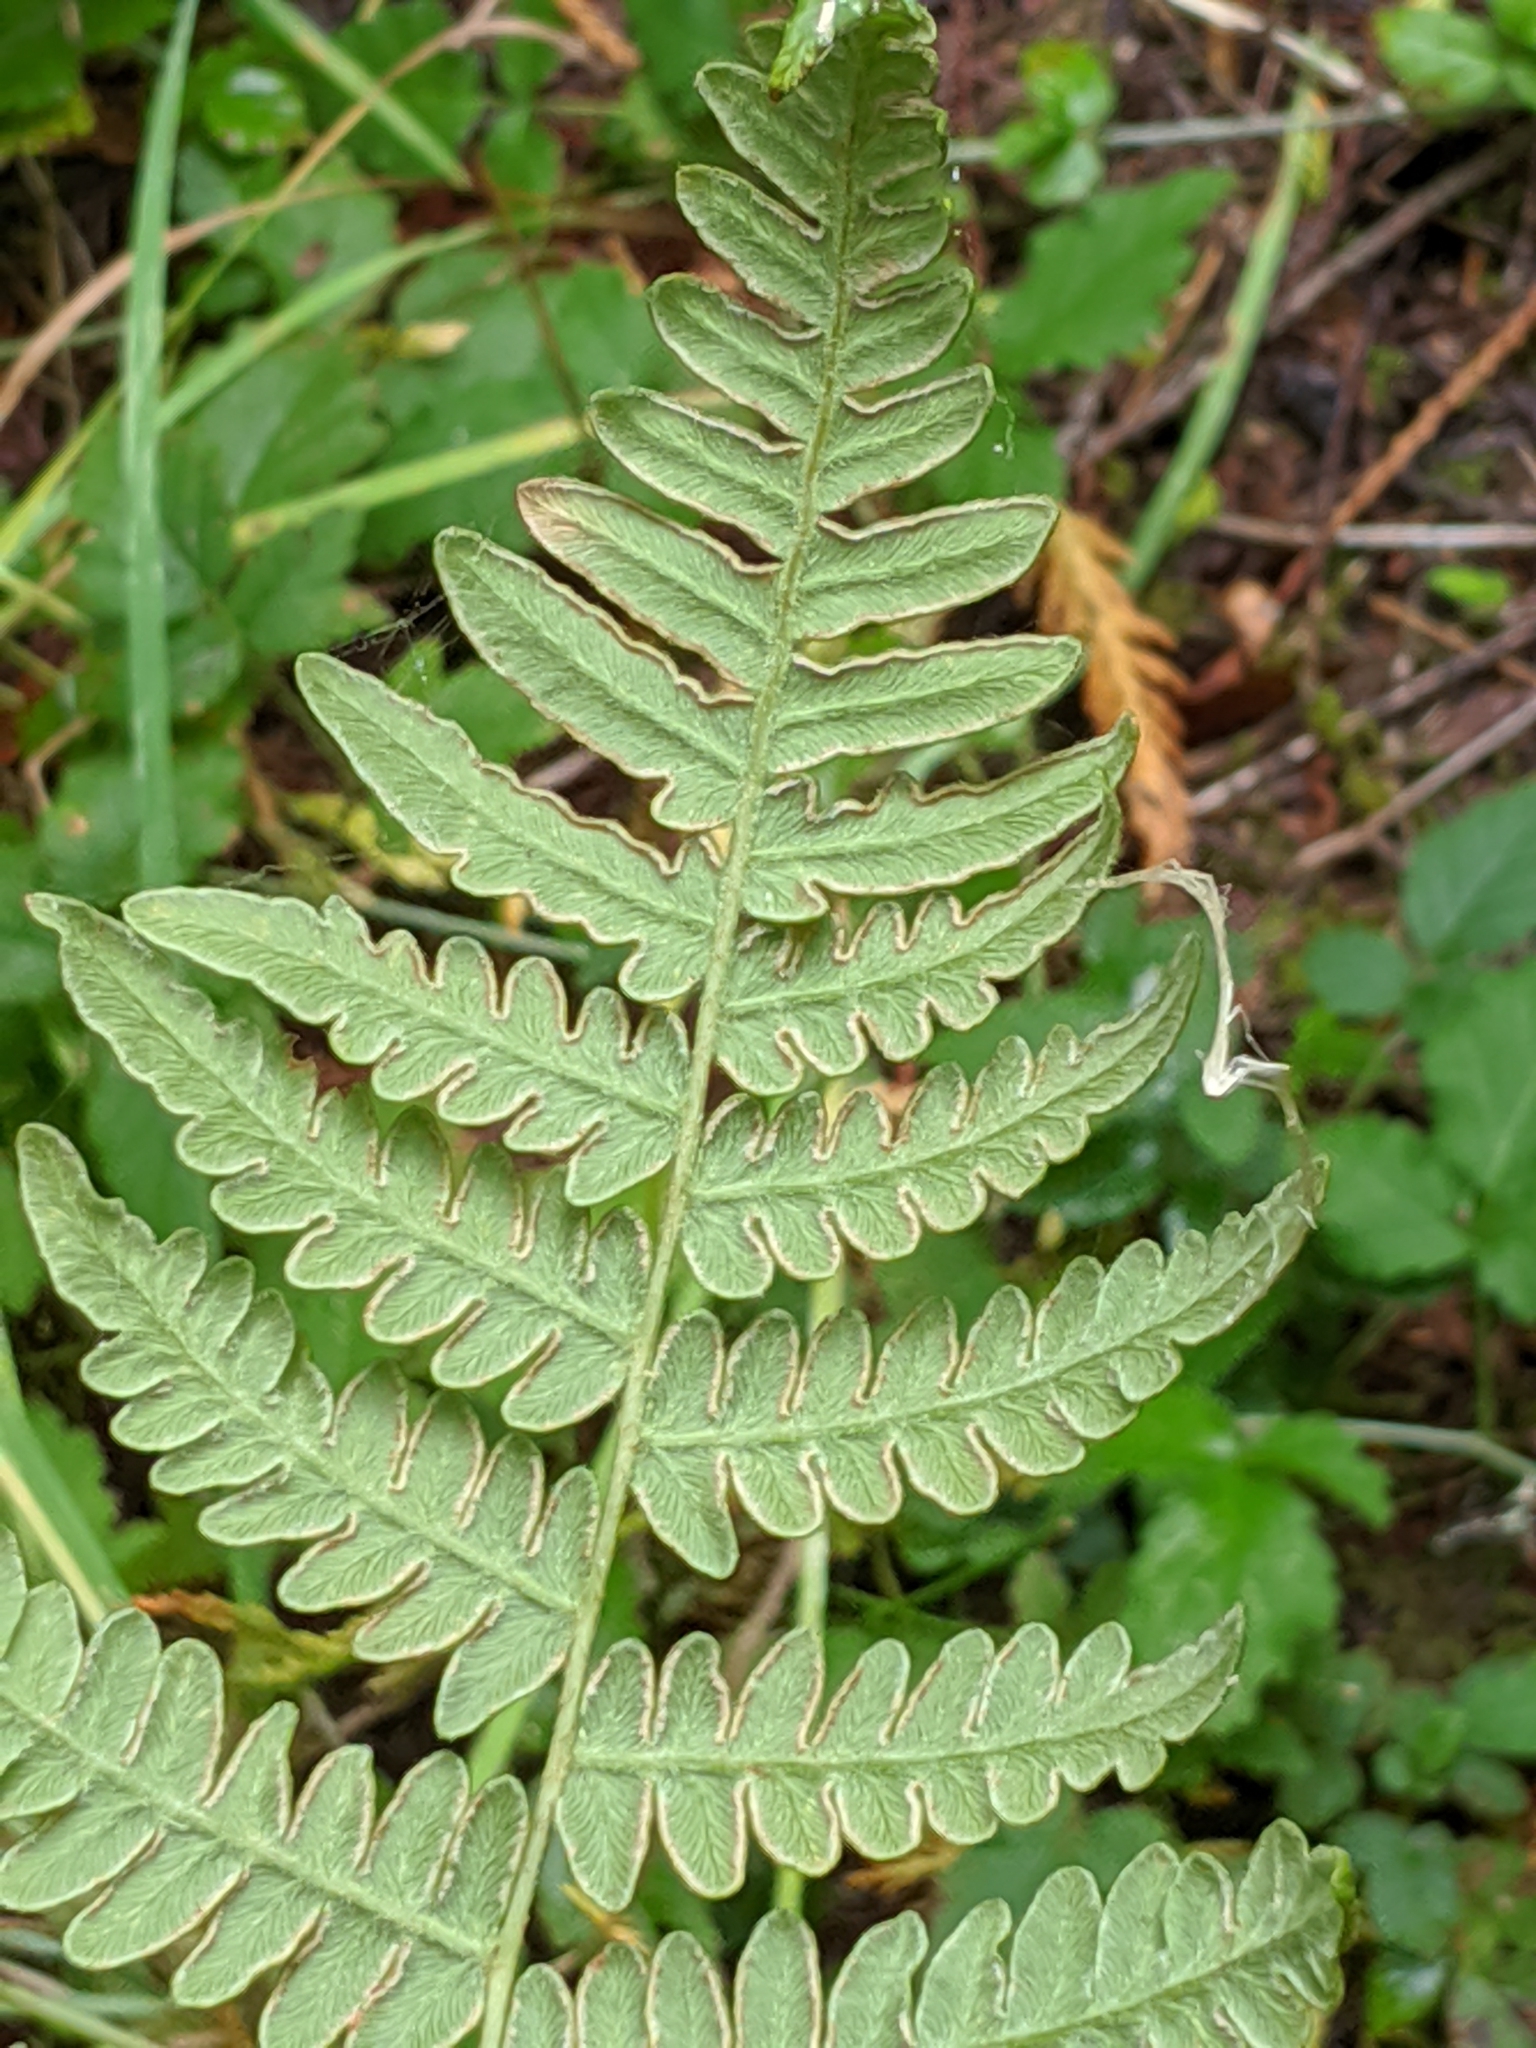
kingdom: Plantae
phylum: Tracheophyta
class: Polypodiopsida
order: Polypodiales
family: Dennstaedtiaceae
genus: Pteridium
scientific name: Pteridium aquilinum
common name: Bracken
